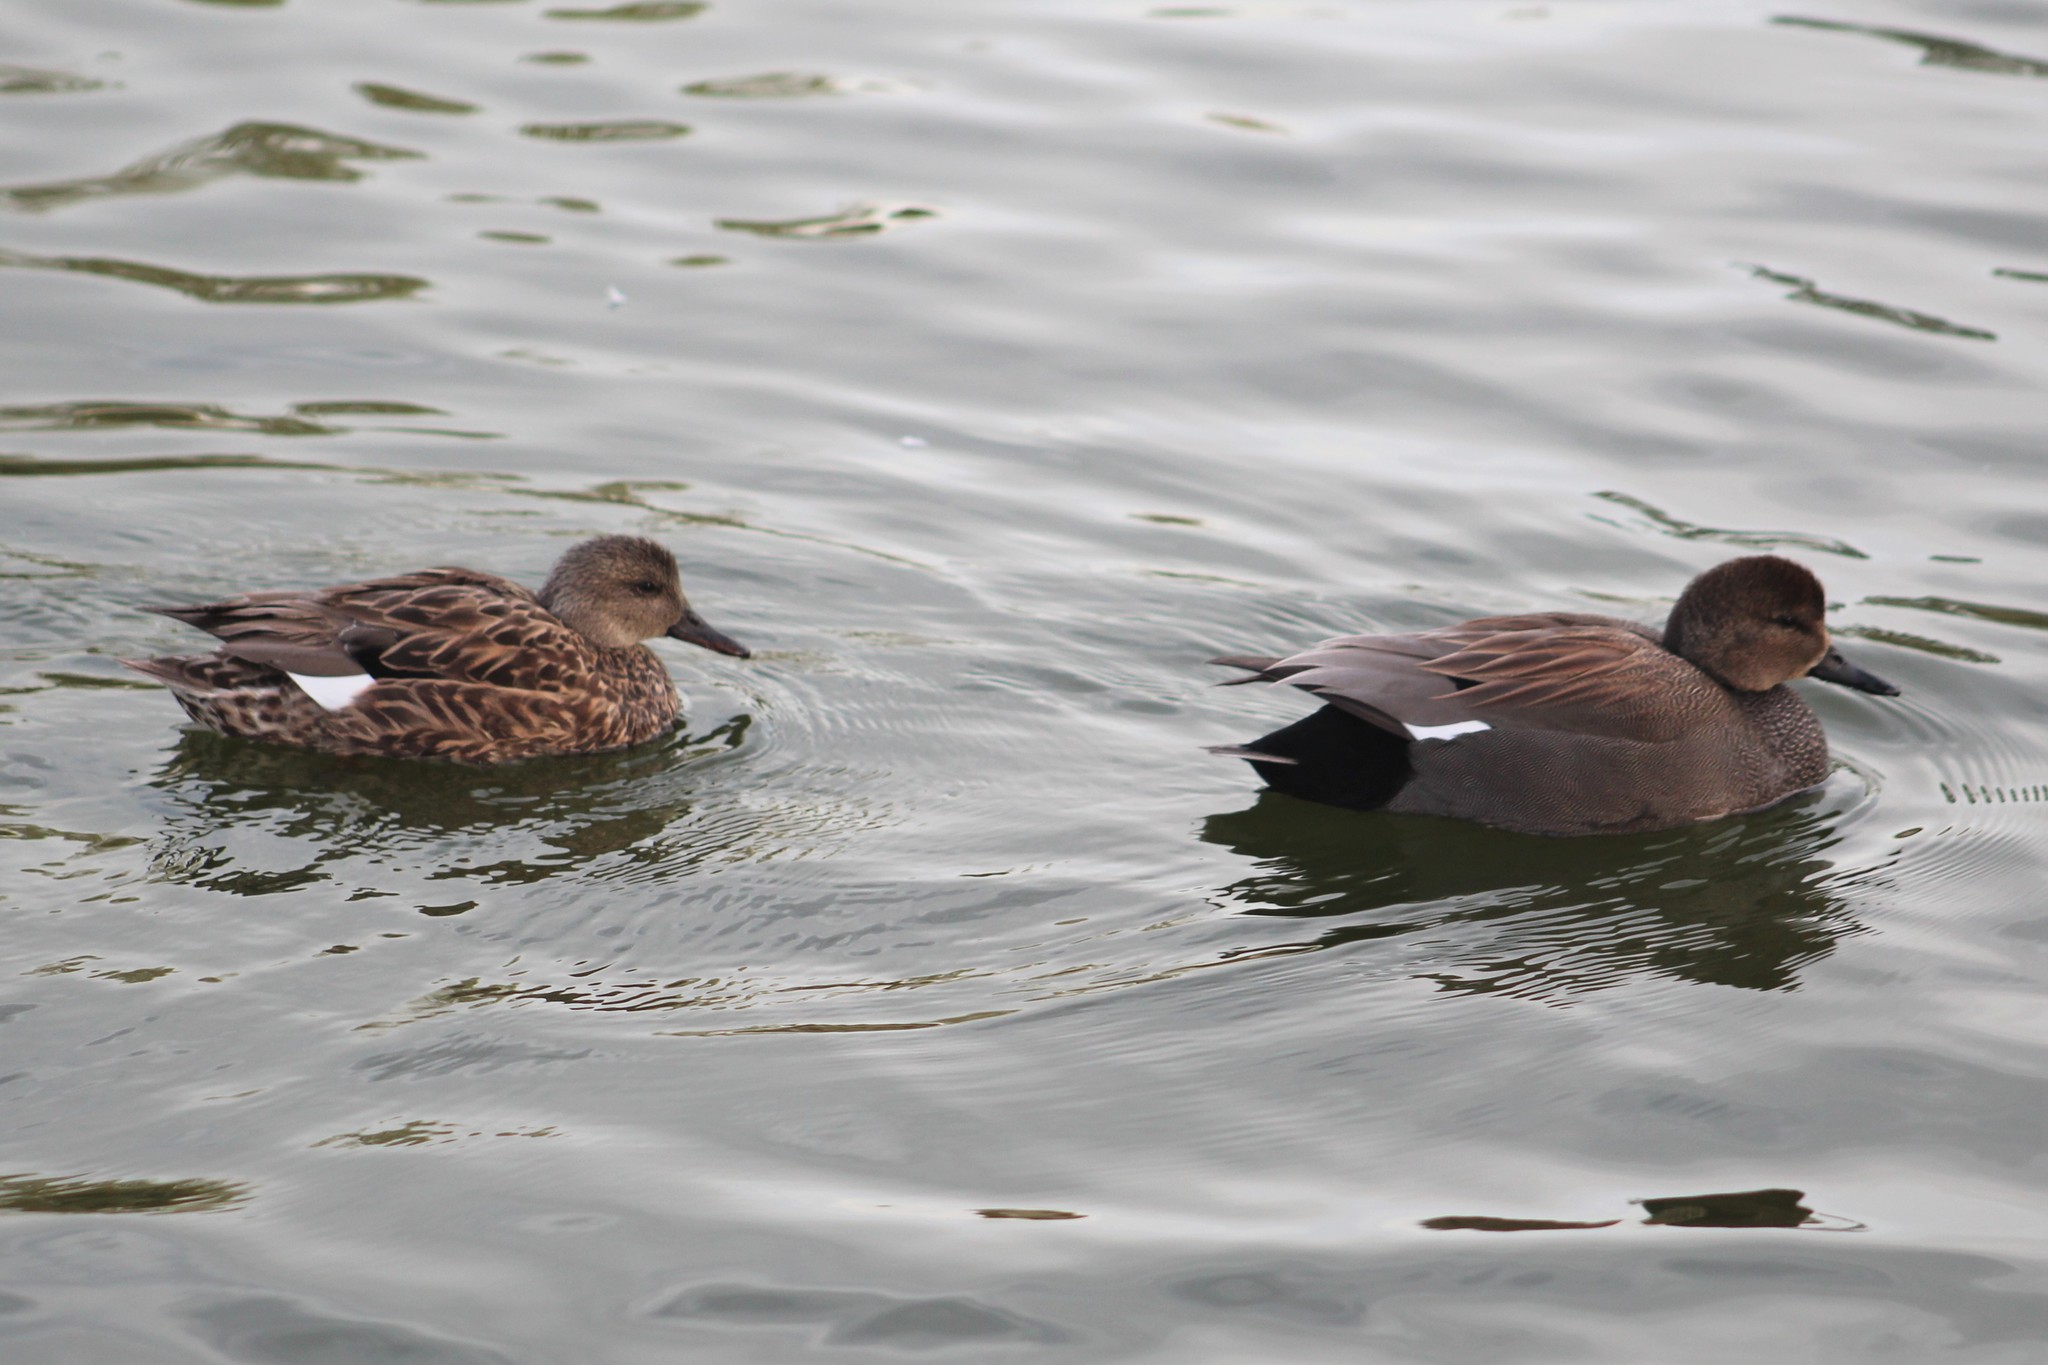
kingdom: Animalia
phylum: Chordata
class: Aves
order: Anseriformes
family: Anatidae
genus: Mareca
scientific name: Mareca strepera
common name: Gadwall
